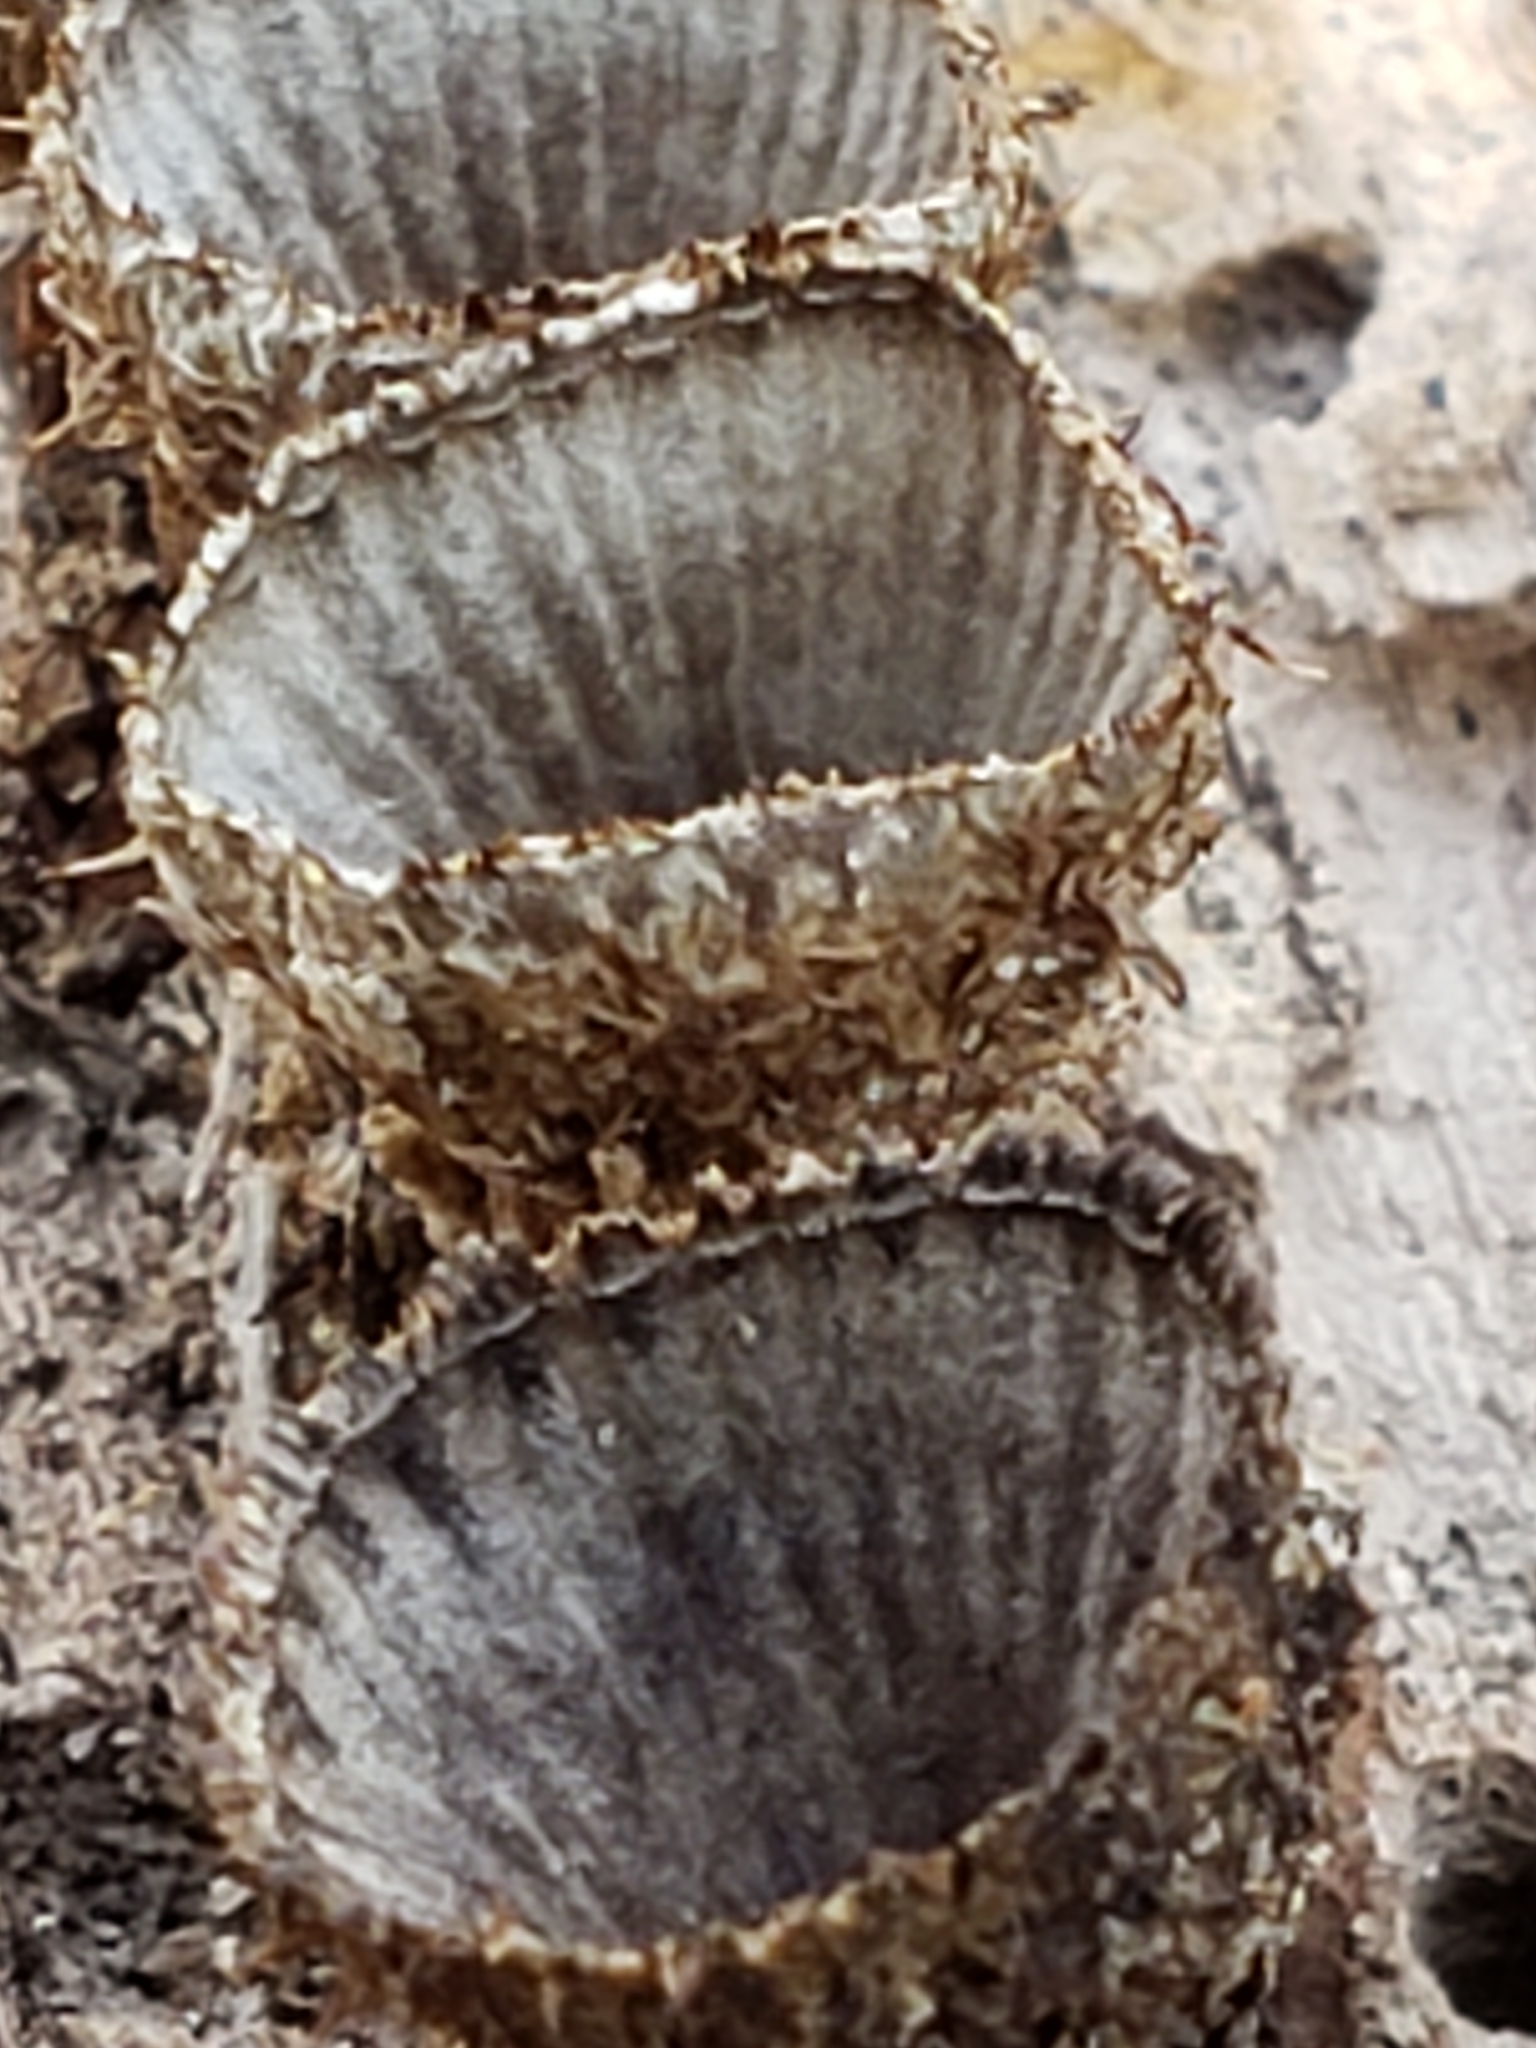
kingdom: Fungi
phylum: Basidiomycota
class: Agaricomycetes
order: Agaricales
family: Agaricaceae
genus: Cyathus
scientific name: Cyathus striatus
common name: Fluted bird's nest
